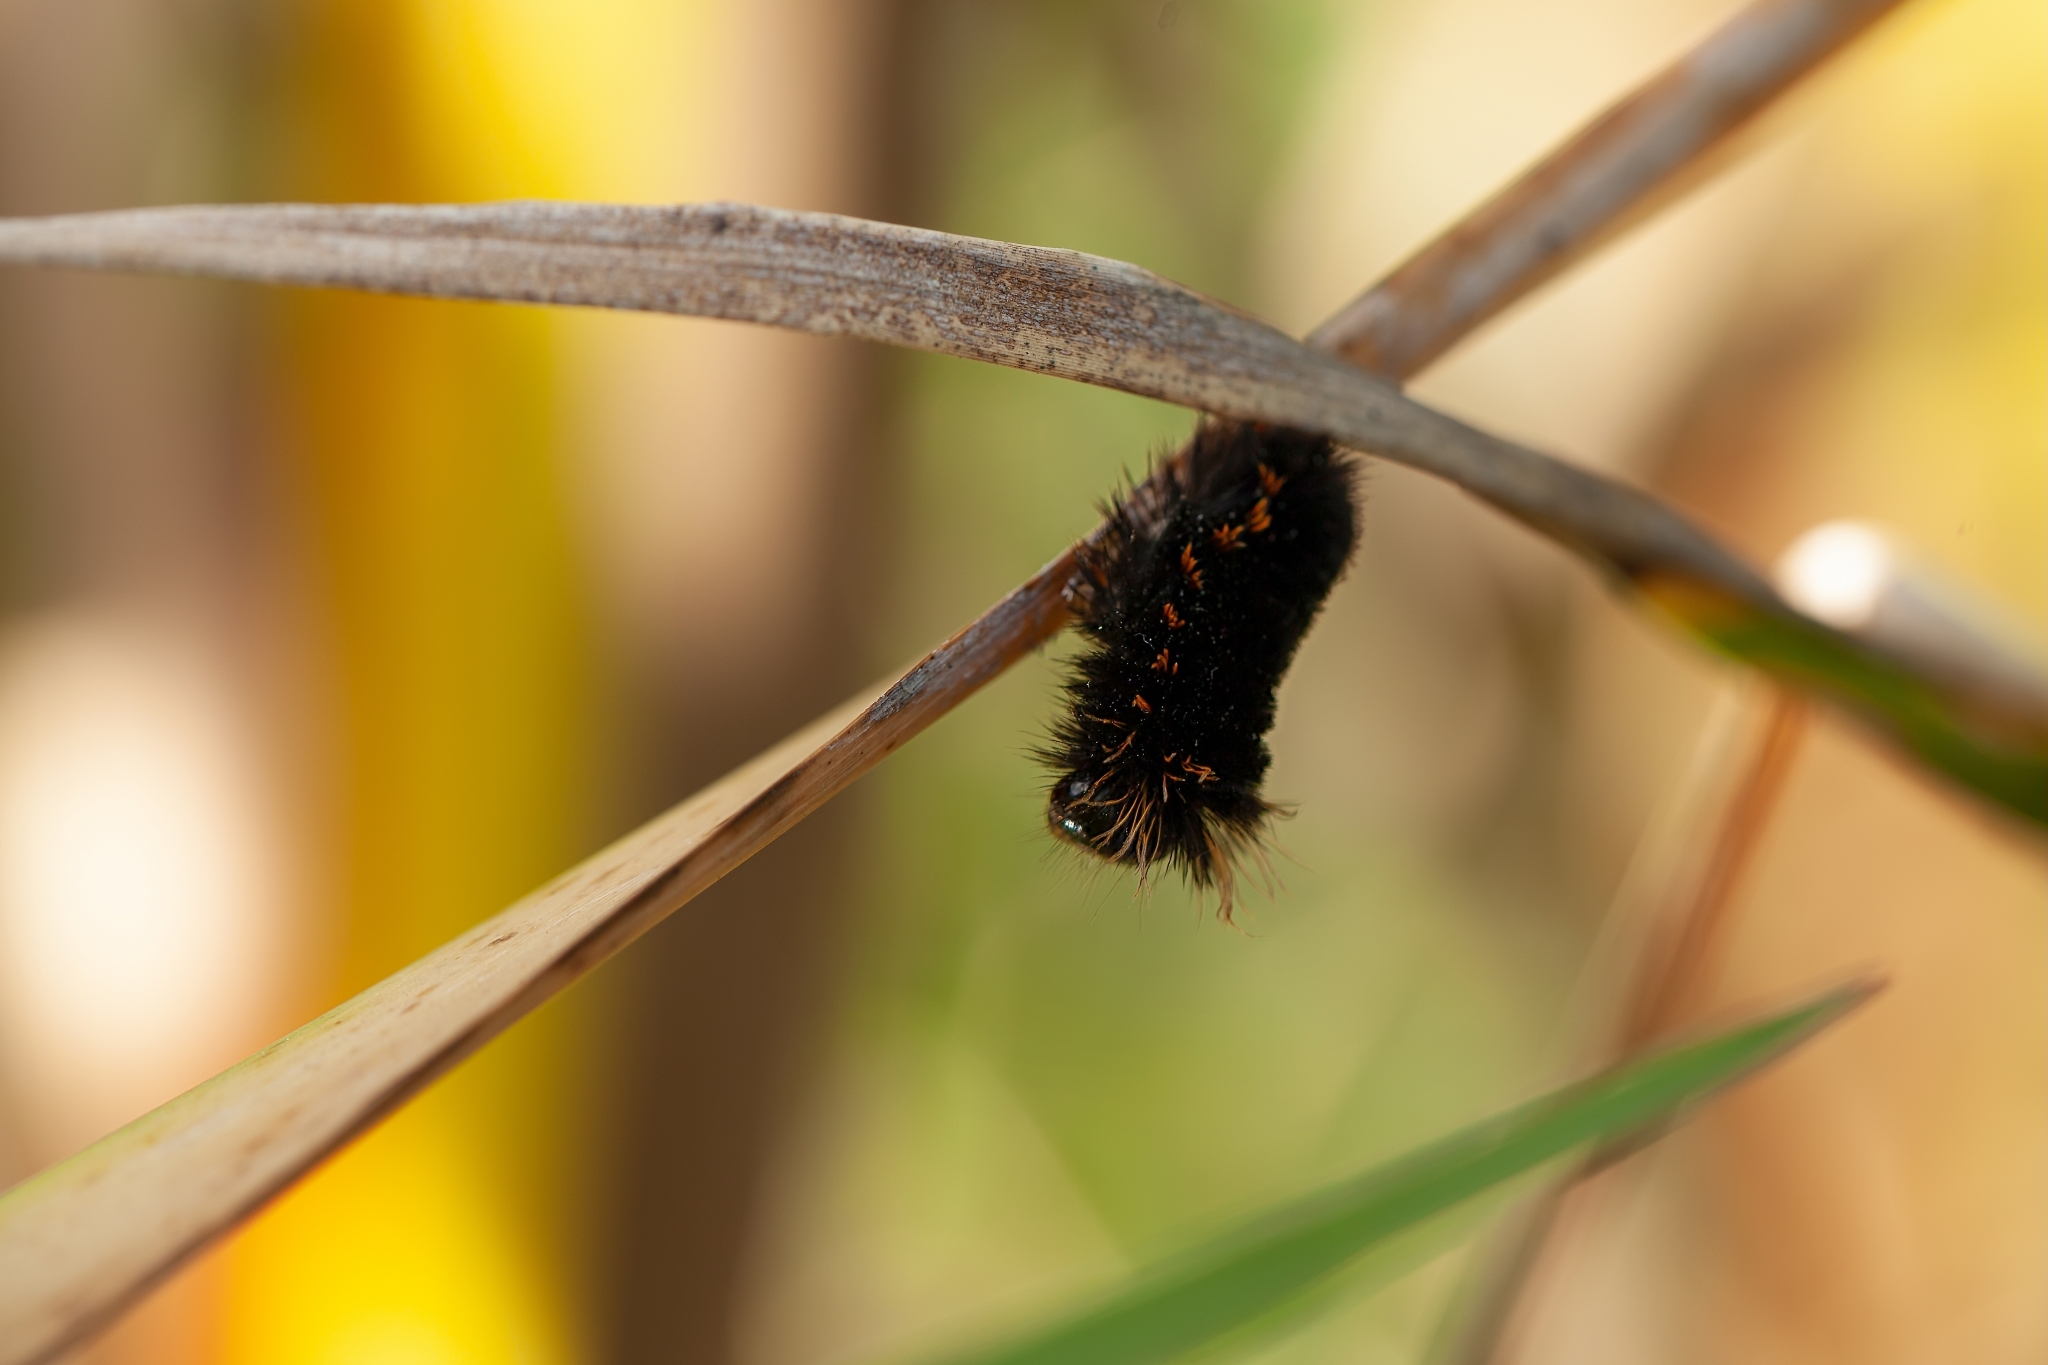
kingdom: Animalia
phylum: Arthropoda
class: Insecta
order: Lepidoptera
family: Erebidae
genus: Estigmene
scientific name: Estigmene acrea
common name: Salt marsh moth
